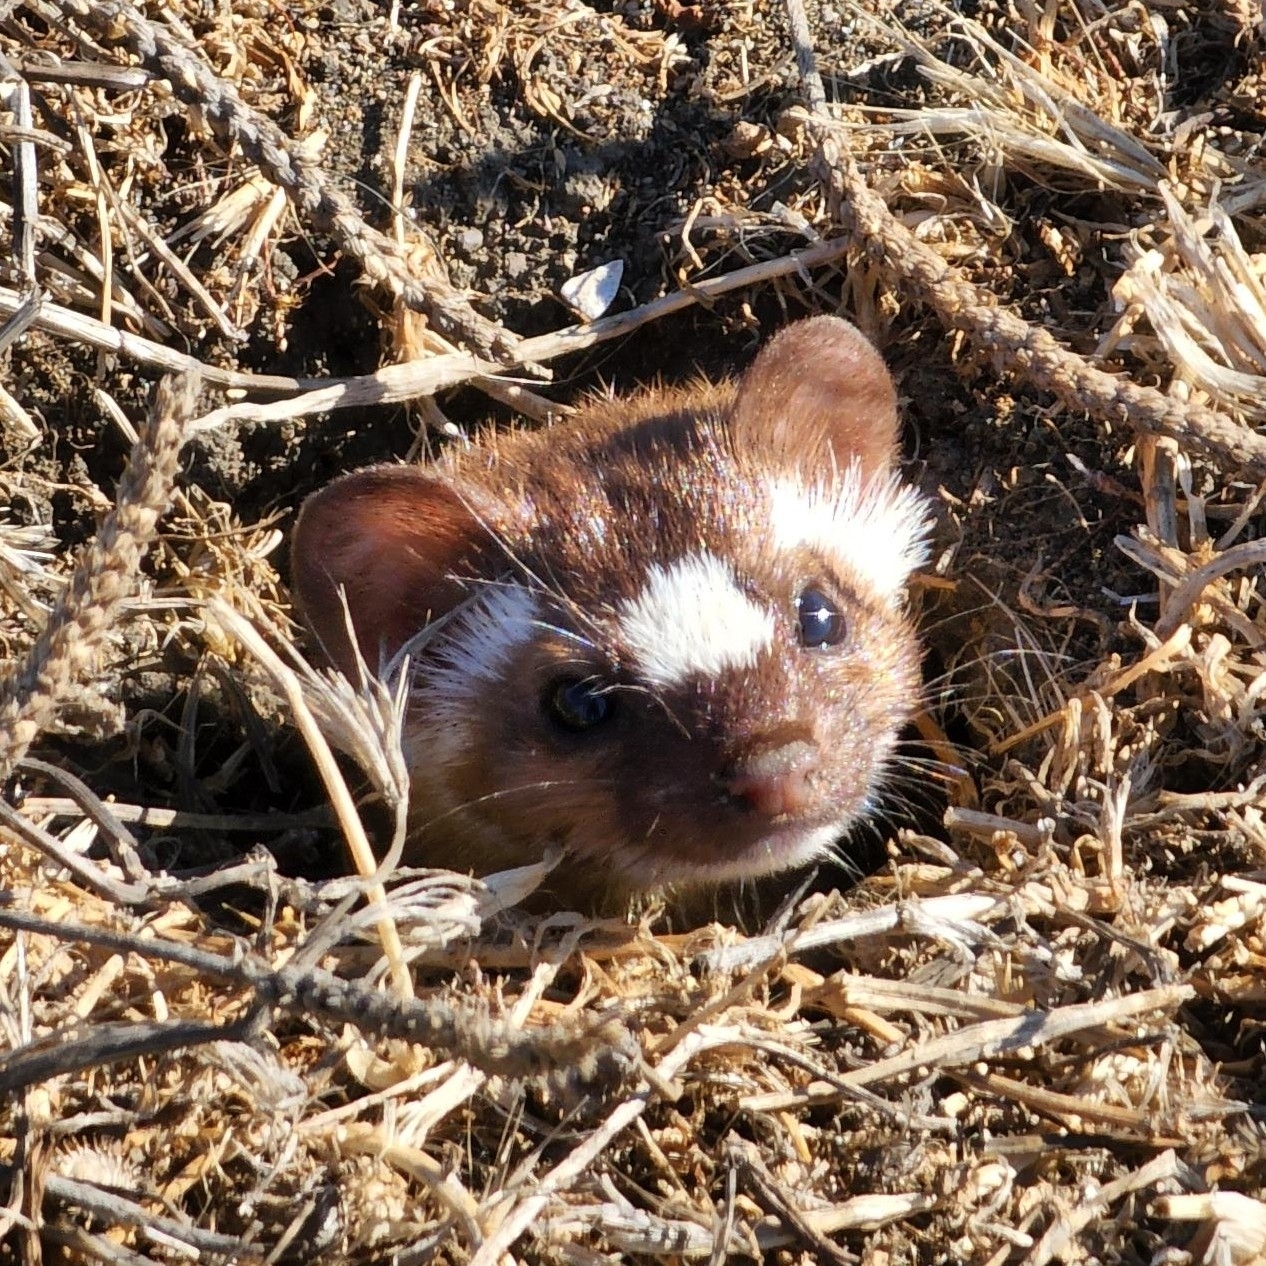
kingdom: Animalia
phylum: Chordata
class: Mammalia
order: Carnivora
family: Mustelidae
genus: Mustela
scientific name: Mustela
